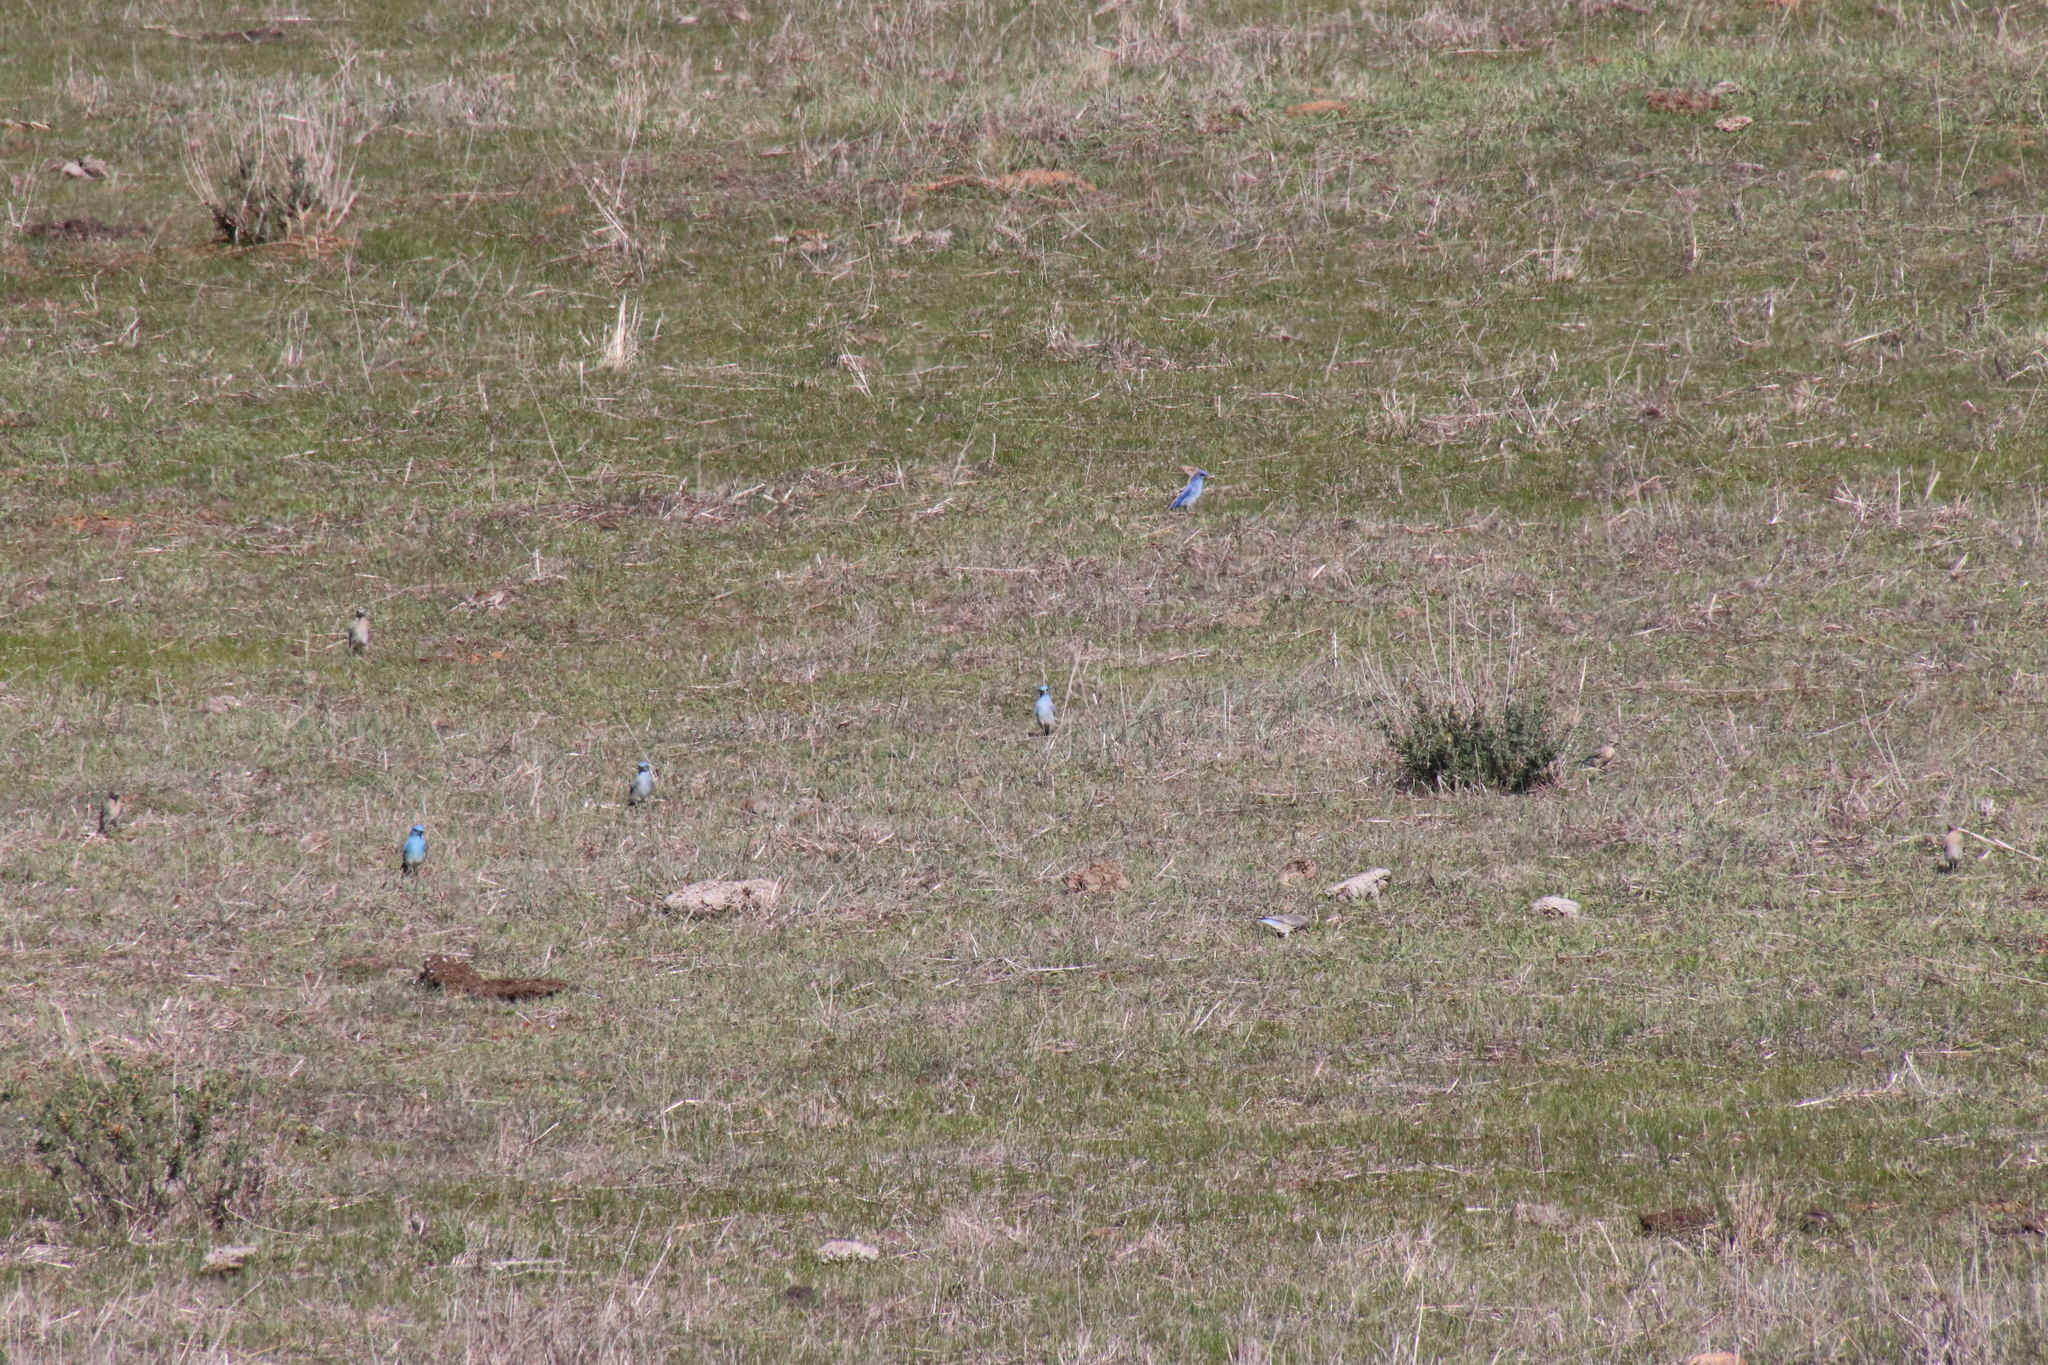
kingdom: Animalia
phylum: Chordata
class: Aves
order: Passeriformes
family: Turdidae
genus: Sialia
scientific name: Sialia currucoides
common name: Mountain bluebird
